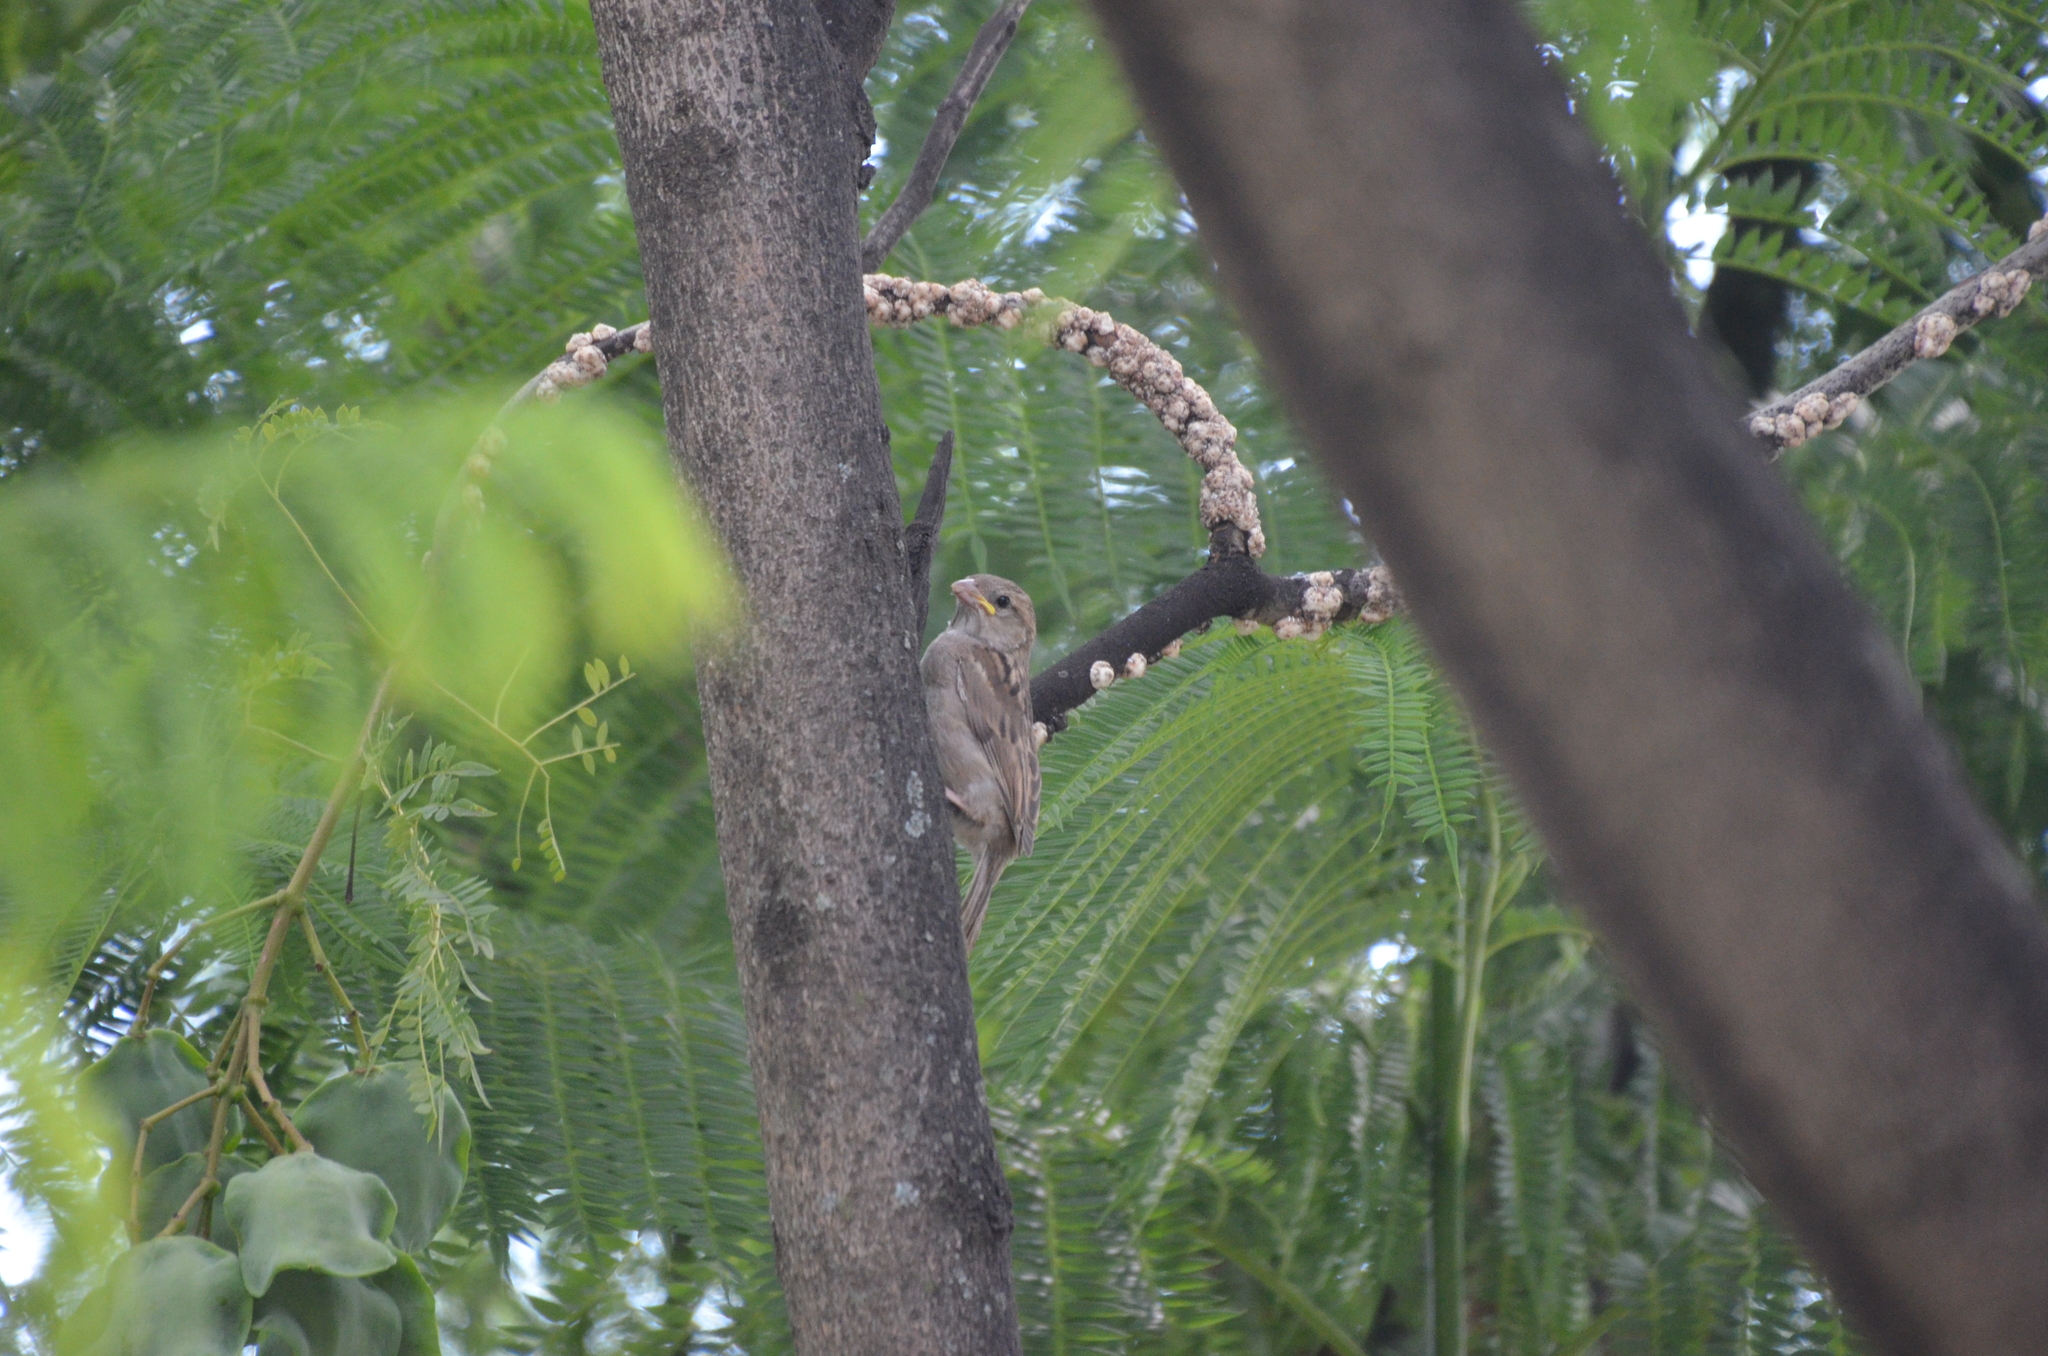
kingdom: Animalia
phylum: Chordata
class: Aves
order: Passeriformes
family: Passeridae
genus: Passer
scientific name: Passer domesticus
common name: House sparrow
